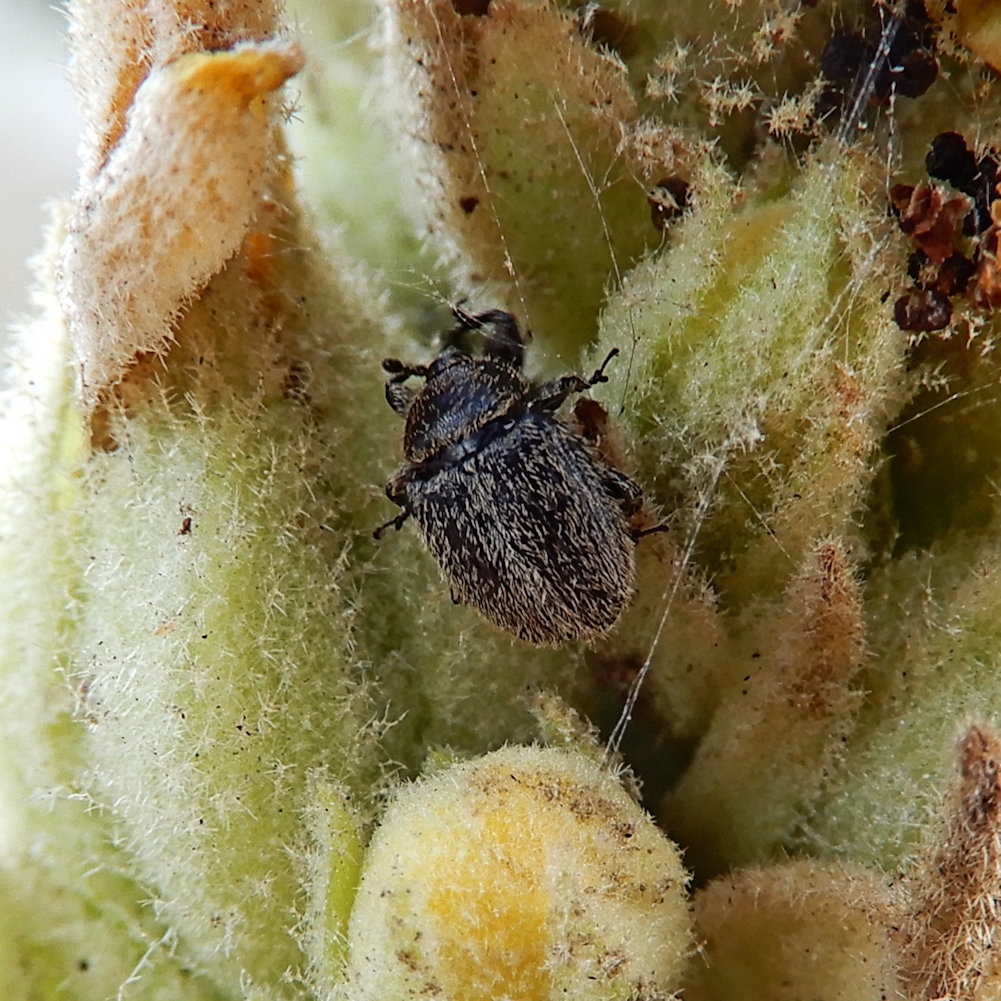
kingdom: Animalia
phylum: Arthropoda
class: Insecta
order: Coleoptera
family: Curculionidae
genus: Rhinusa
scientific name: Rhinusa tetra
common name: Weevil
